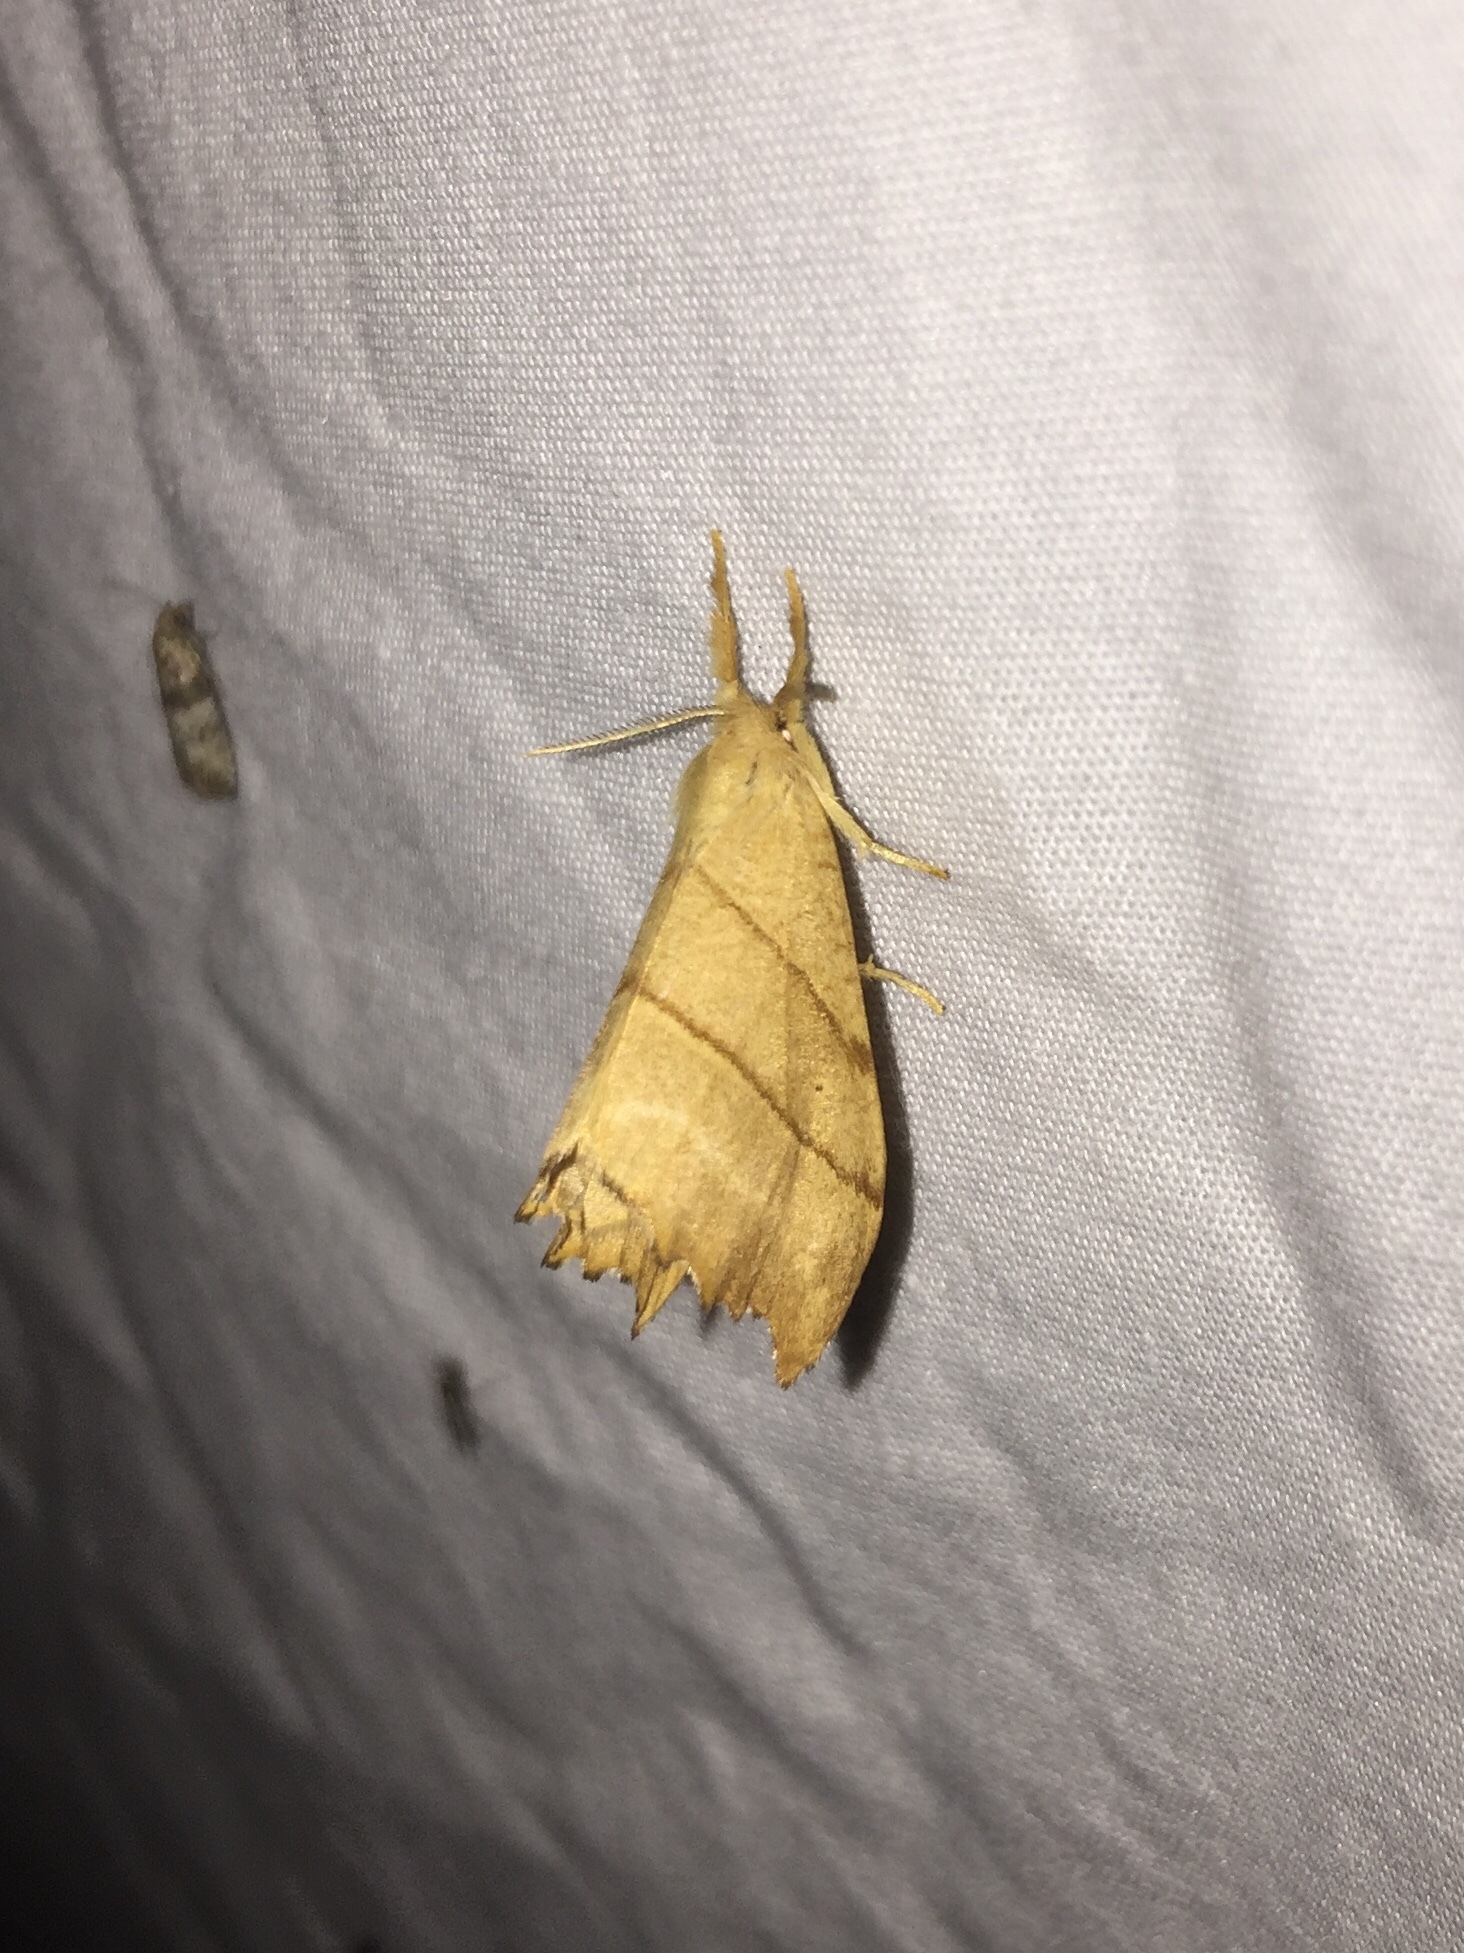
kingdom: Animalia
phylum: Arthropoda
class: Insecta
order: Lepidoptera
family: Drepanidae
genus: Falcaria
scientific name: Falcaria bilineata
